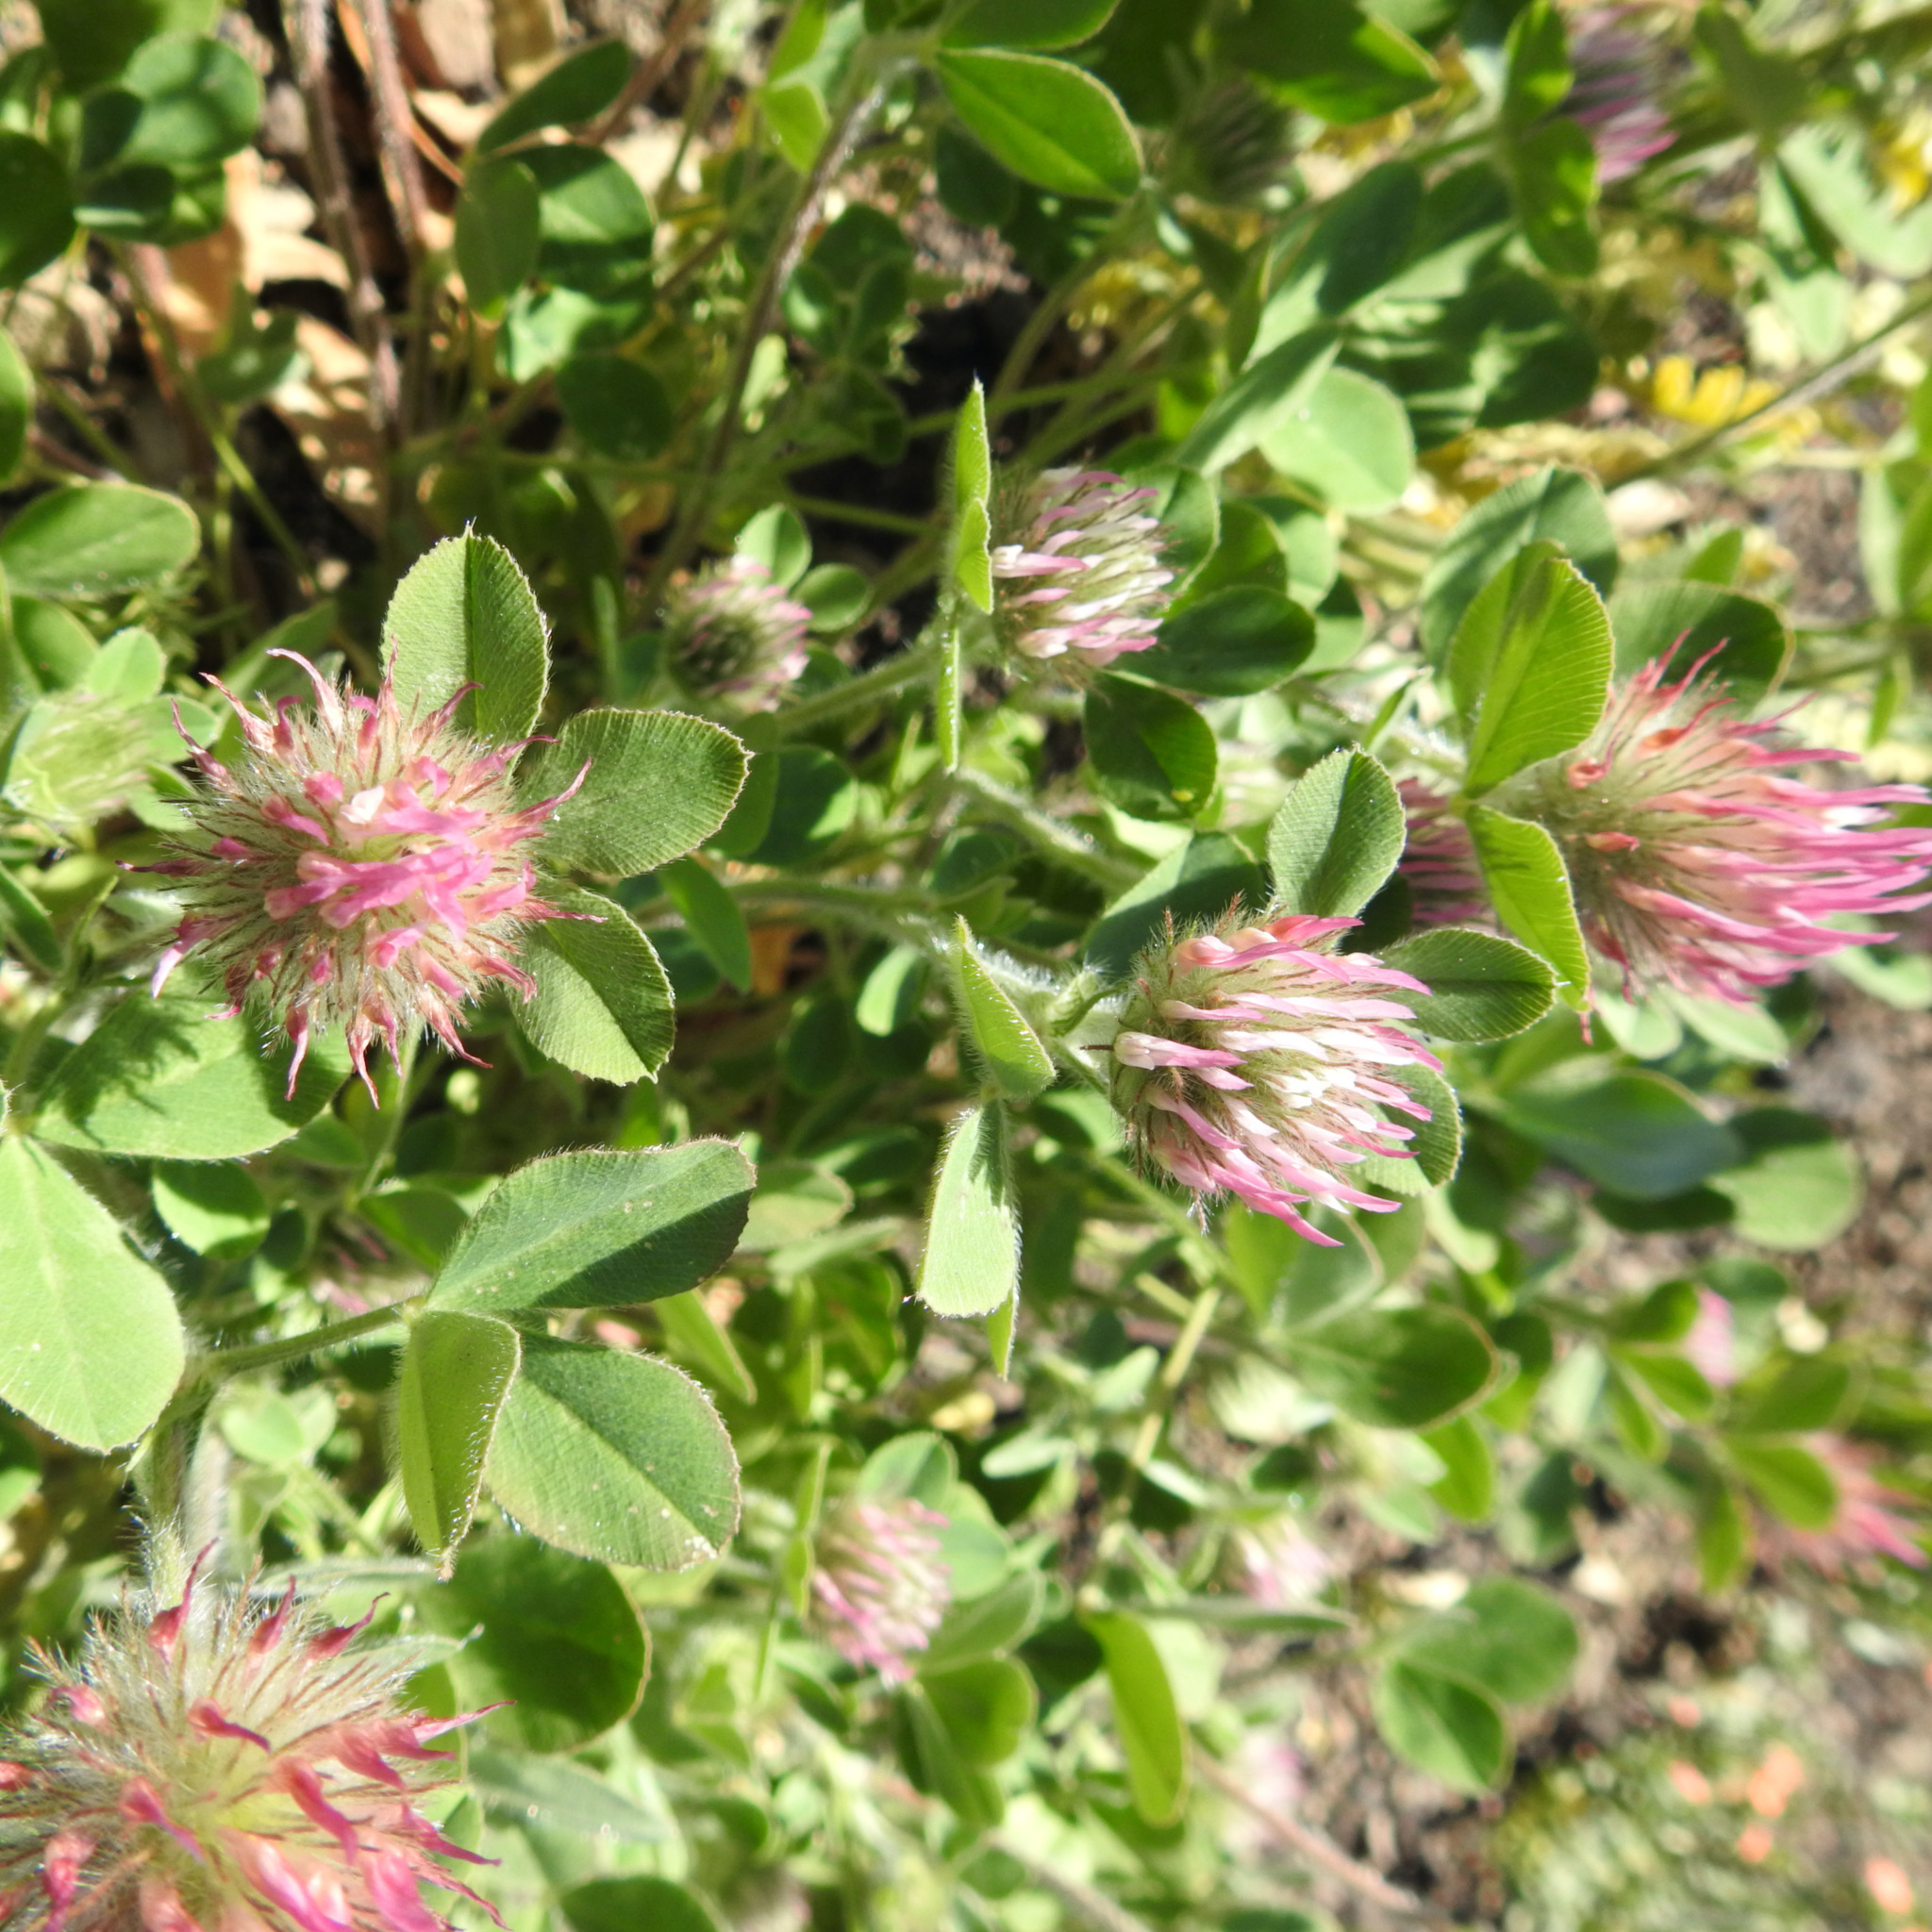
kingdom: Plantae
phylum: Tracheophyta
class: Magnoliopsida
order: Fabales
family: Fabaceae
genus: Trifolium
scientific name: Trifolium hirtum
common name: Rose clover
